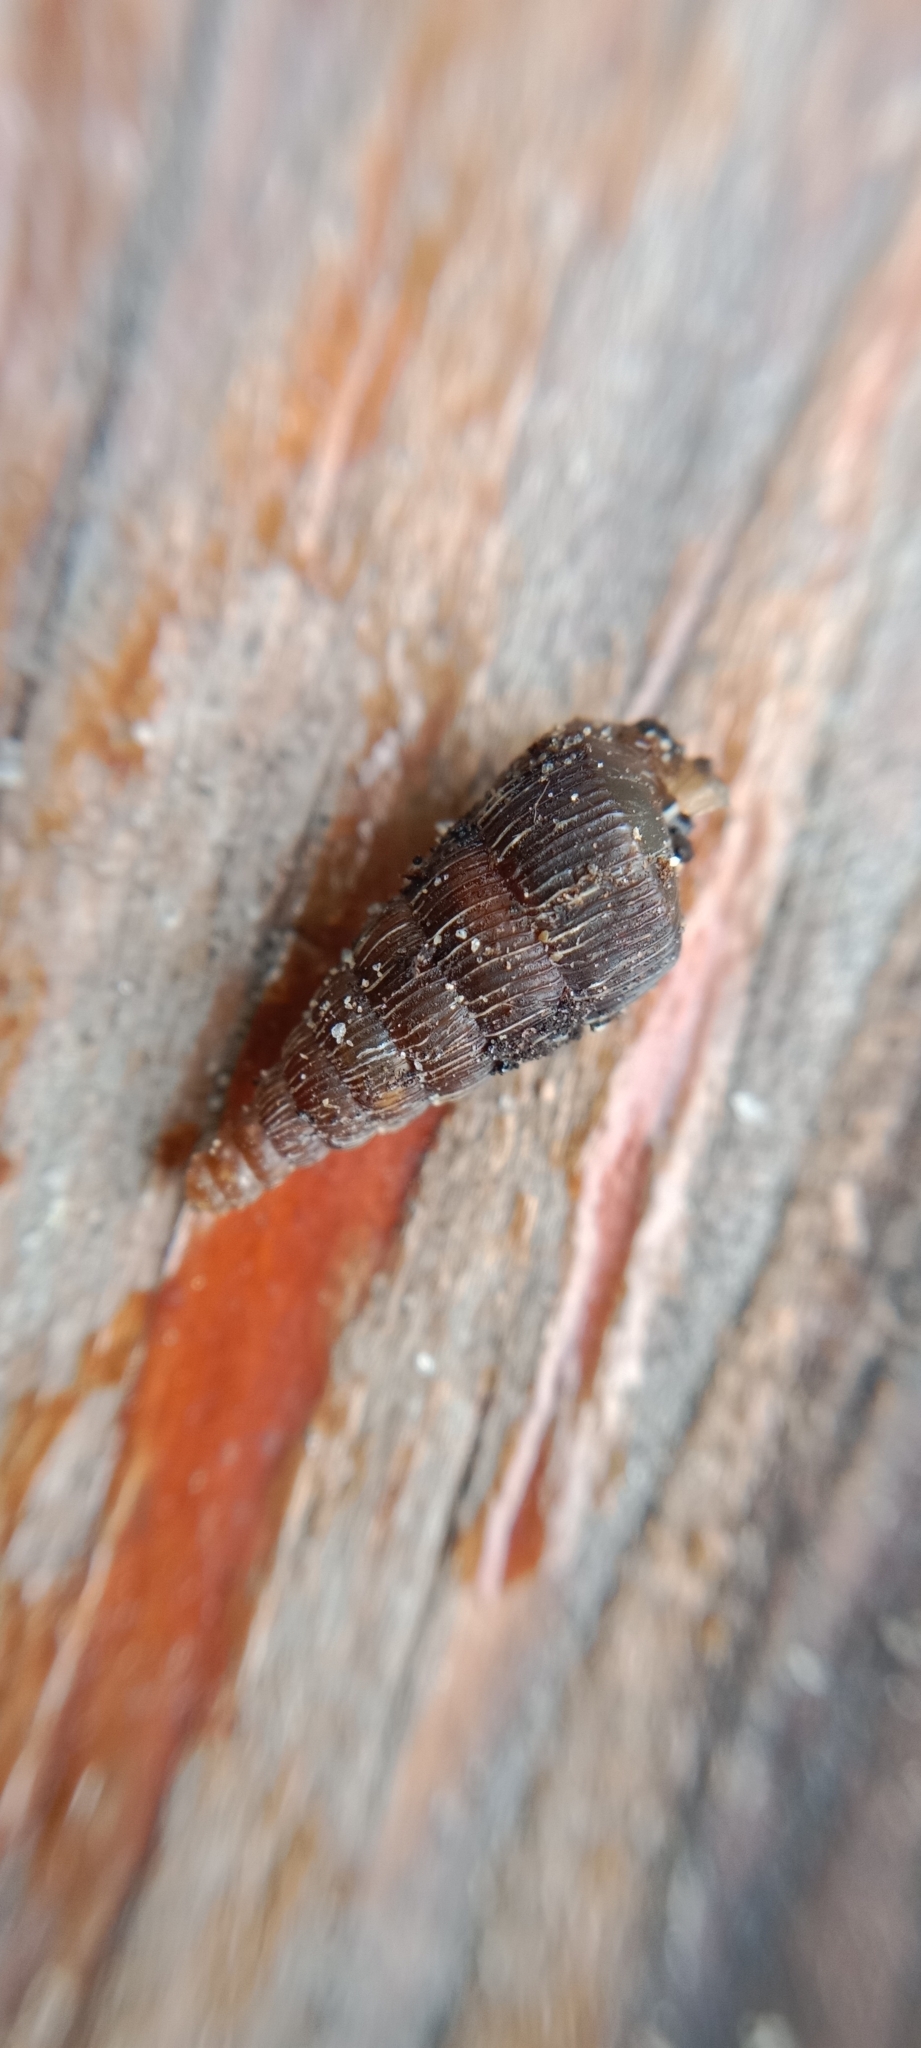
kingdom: Animalia
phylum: Mollusca
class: Gastropoda
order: Stylommatophora
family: Clausiliidae
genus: Laciniaria
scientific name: Laciniaria plicata
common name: Single-lipped door snail
